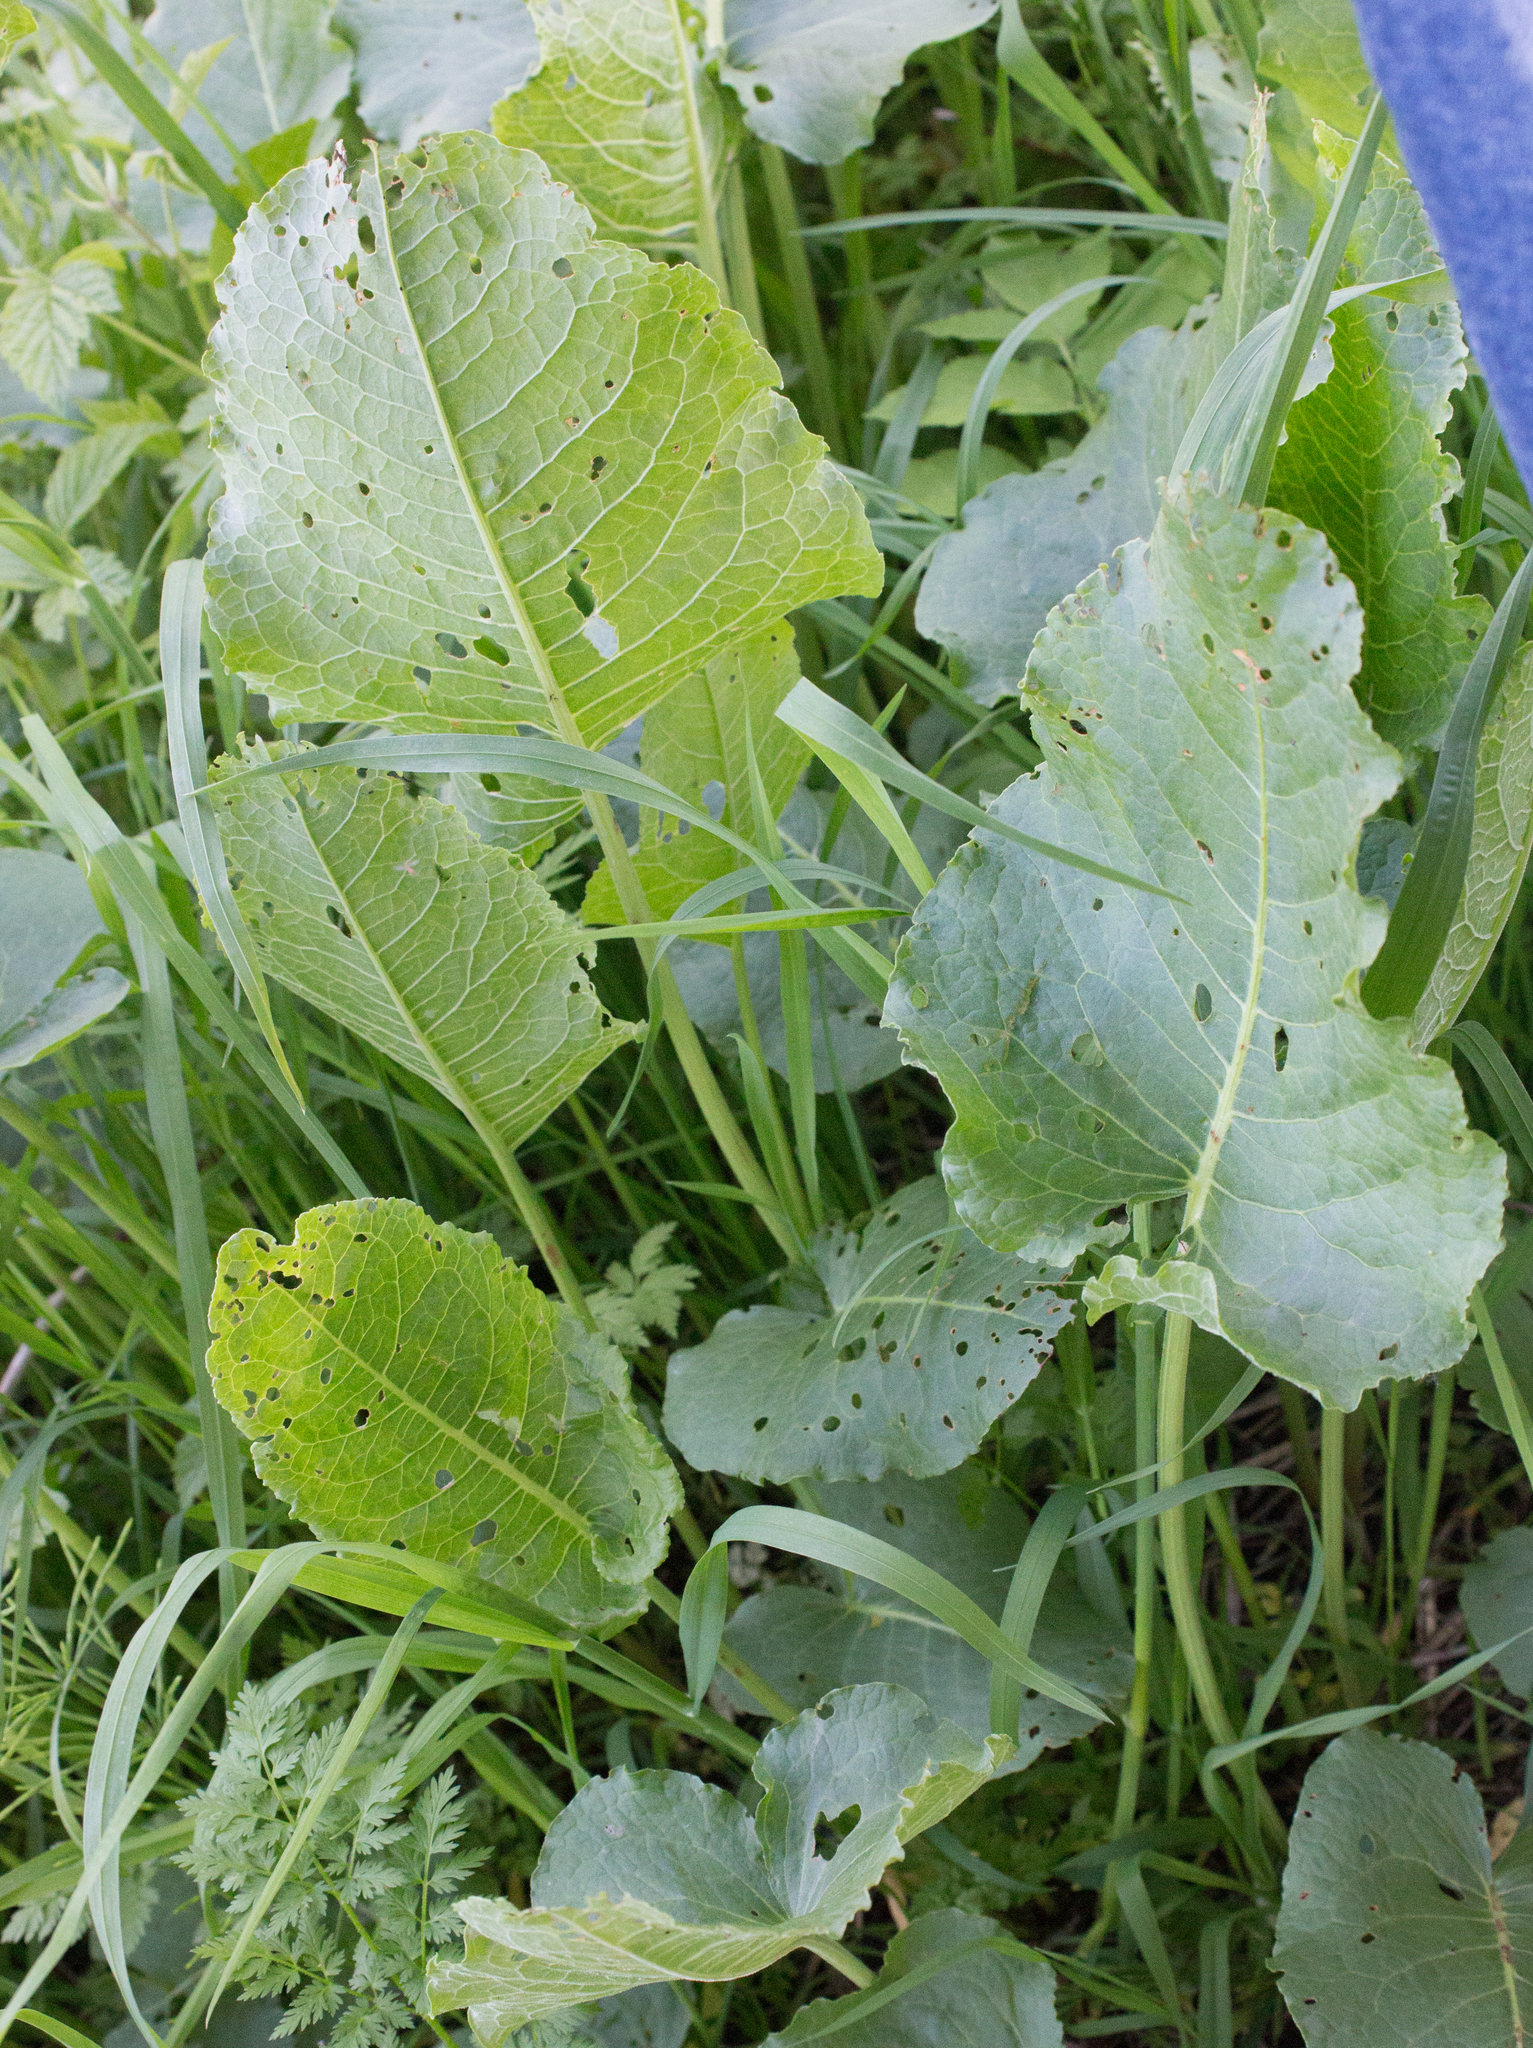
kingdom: Plantae
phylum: Tracheophyta
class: Magnoliopsida
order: Caryophyllales
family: Polygonaceae
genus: Rumex
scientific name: Rumex confertus
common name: Russian dock
